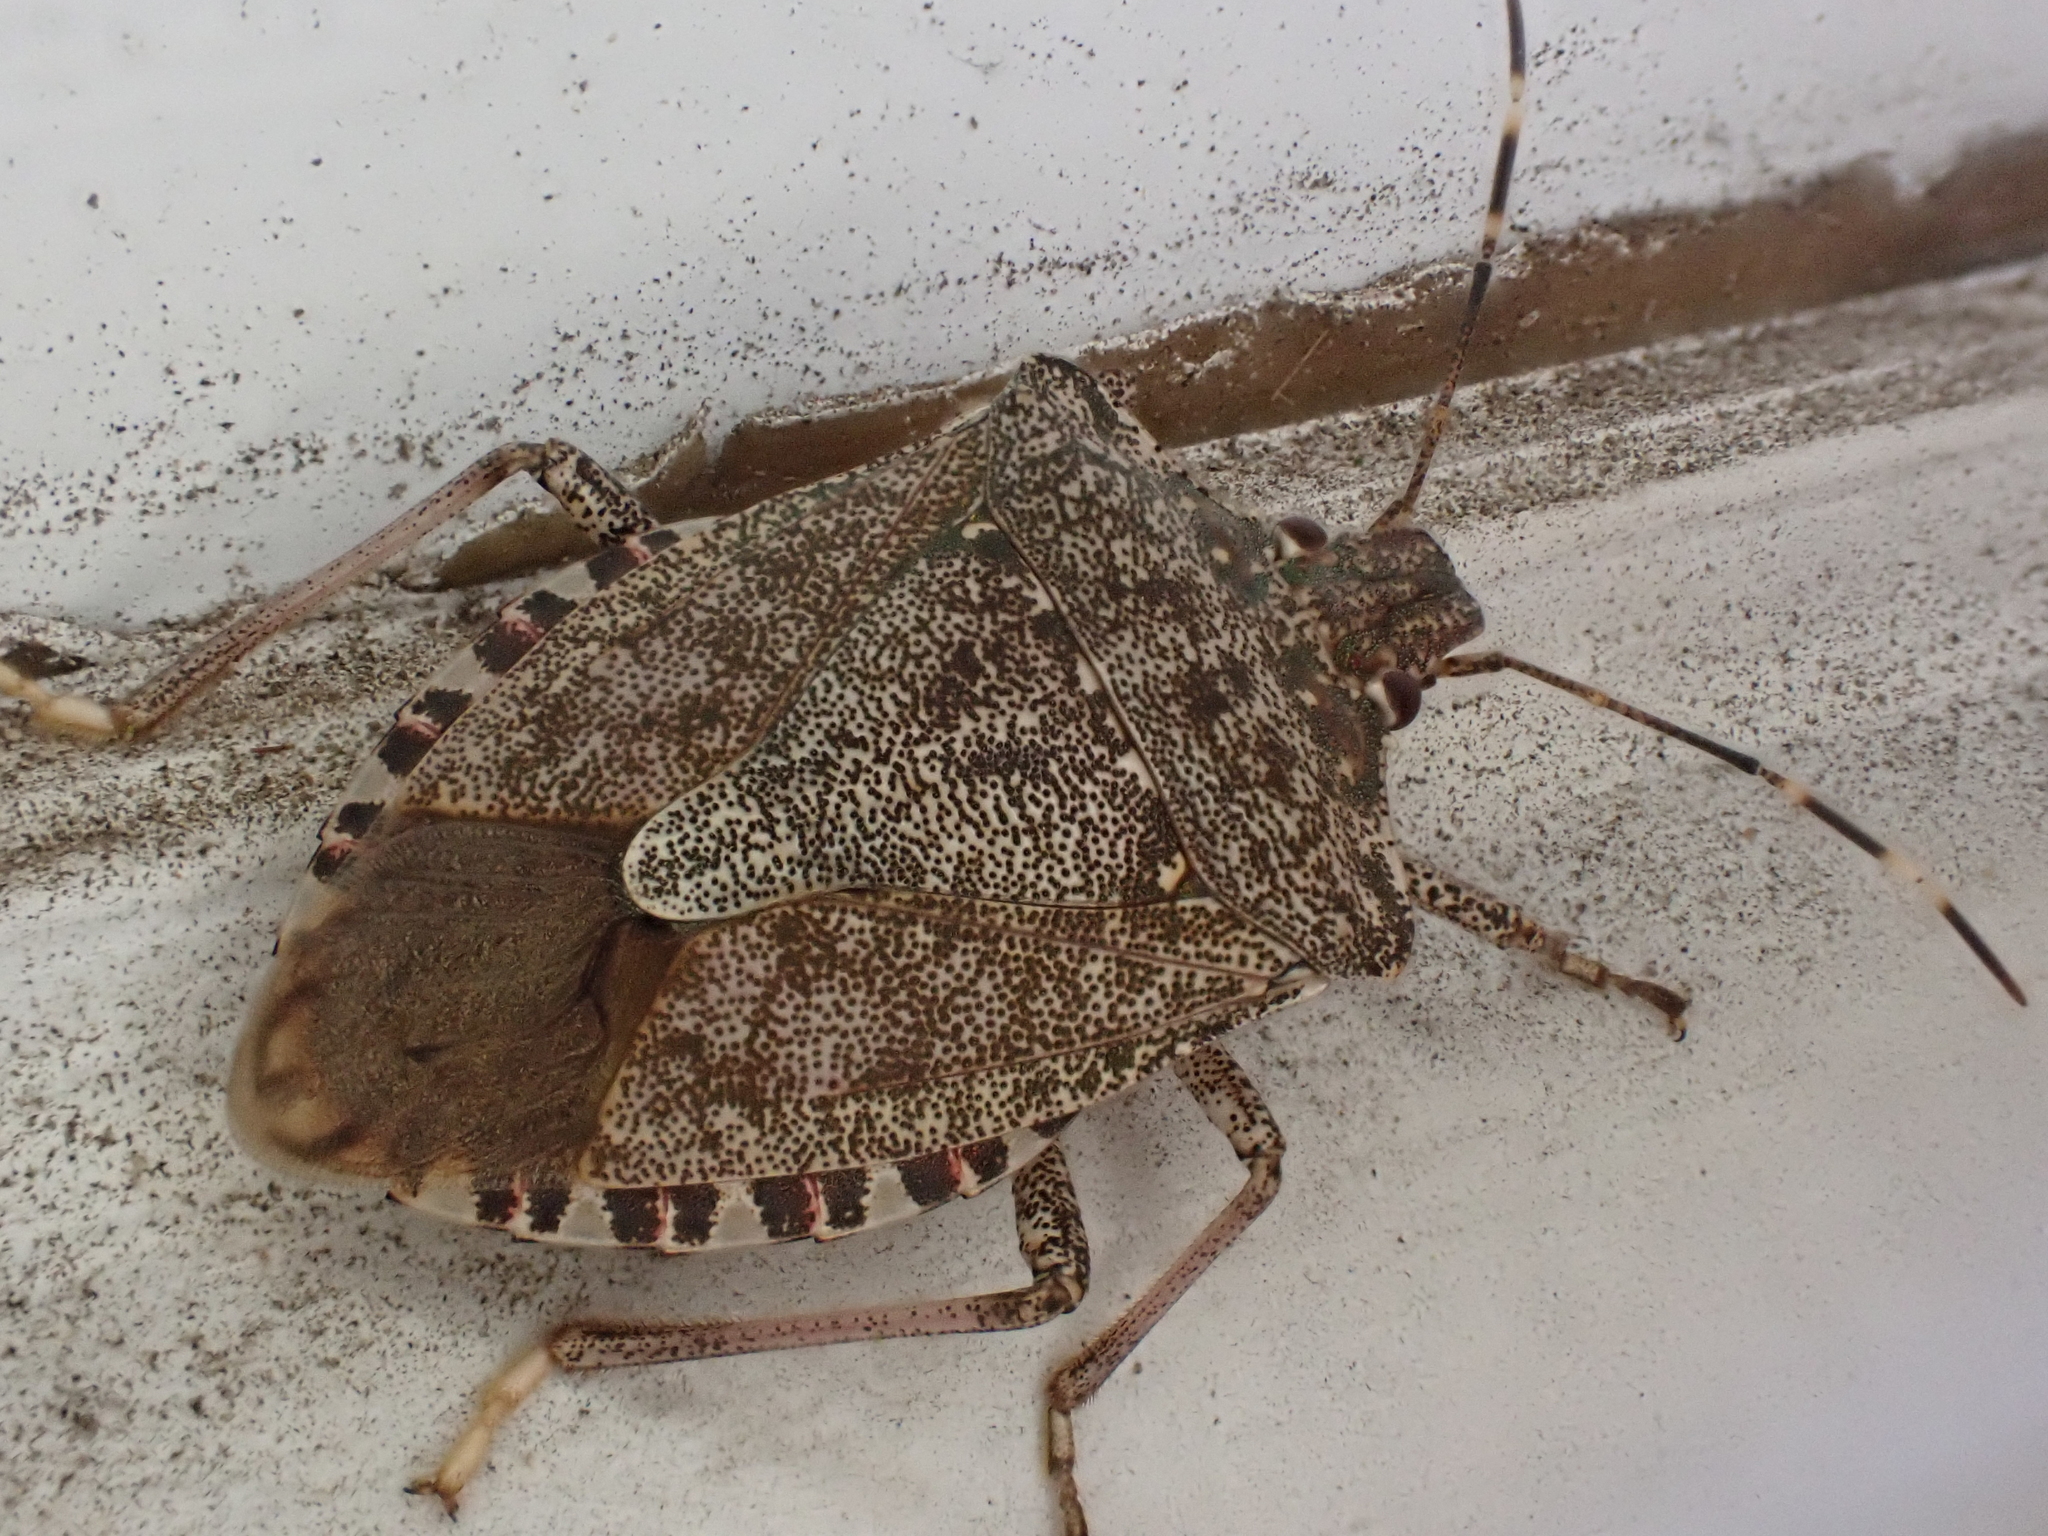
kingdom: Animalia
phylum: Arthropoda
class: Insecta
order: Hemiptera
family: Pentatomidae
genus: Halyomorpha
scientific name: Halyomorpha halys
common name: Brown marmorated stink bug
